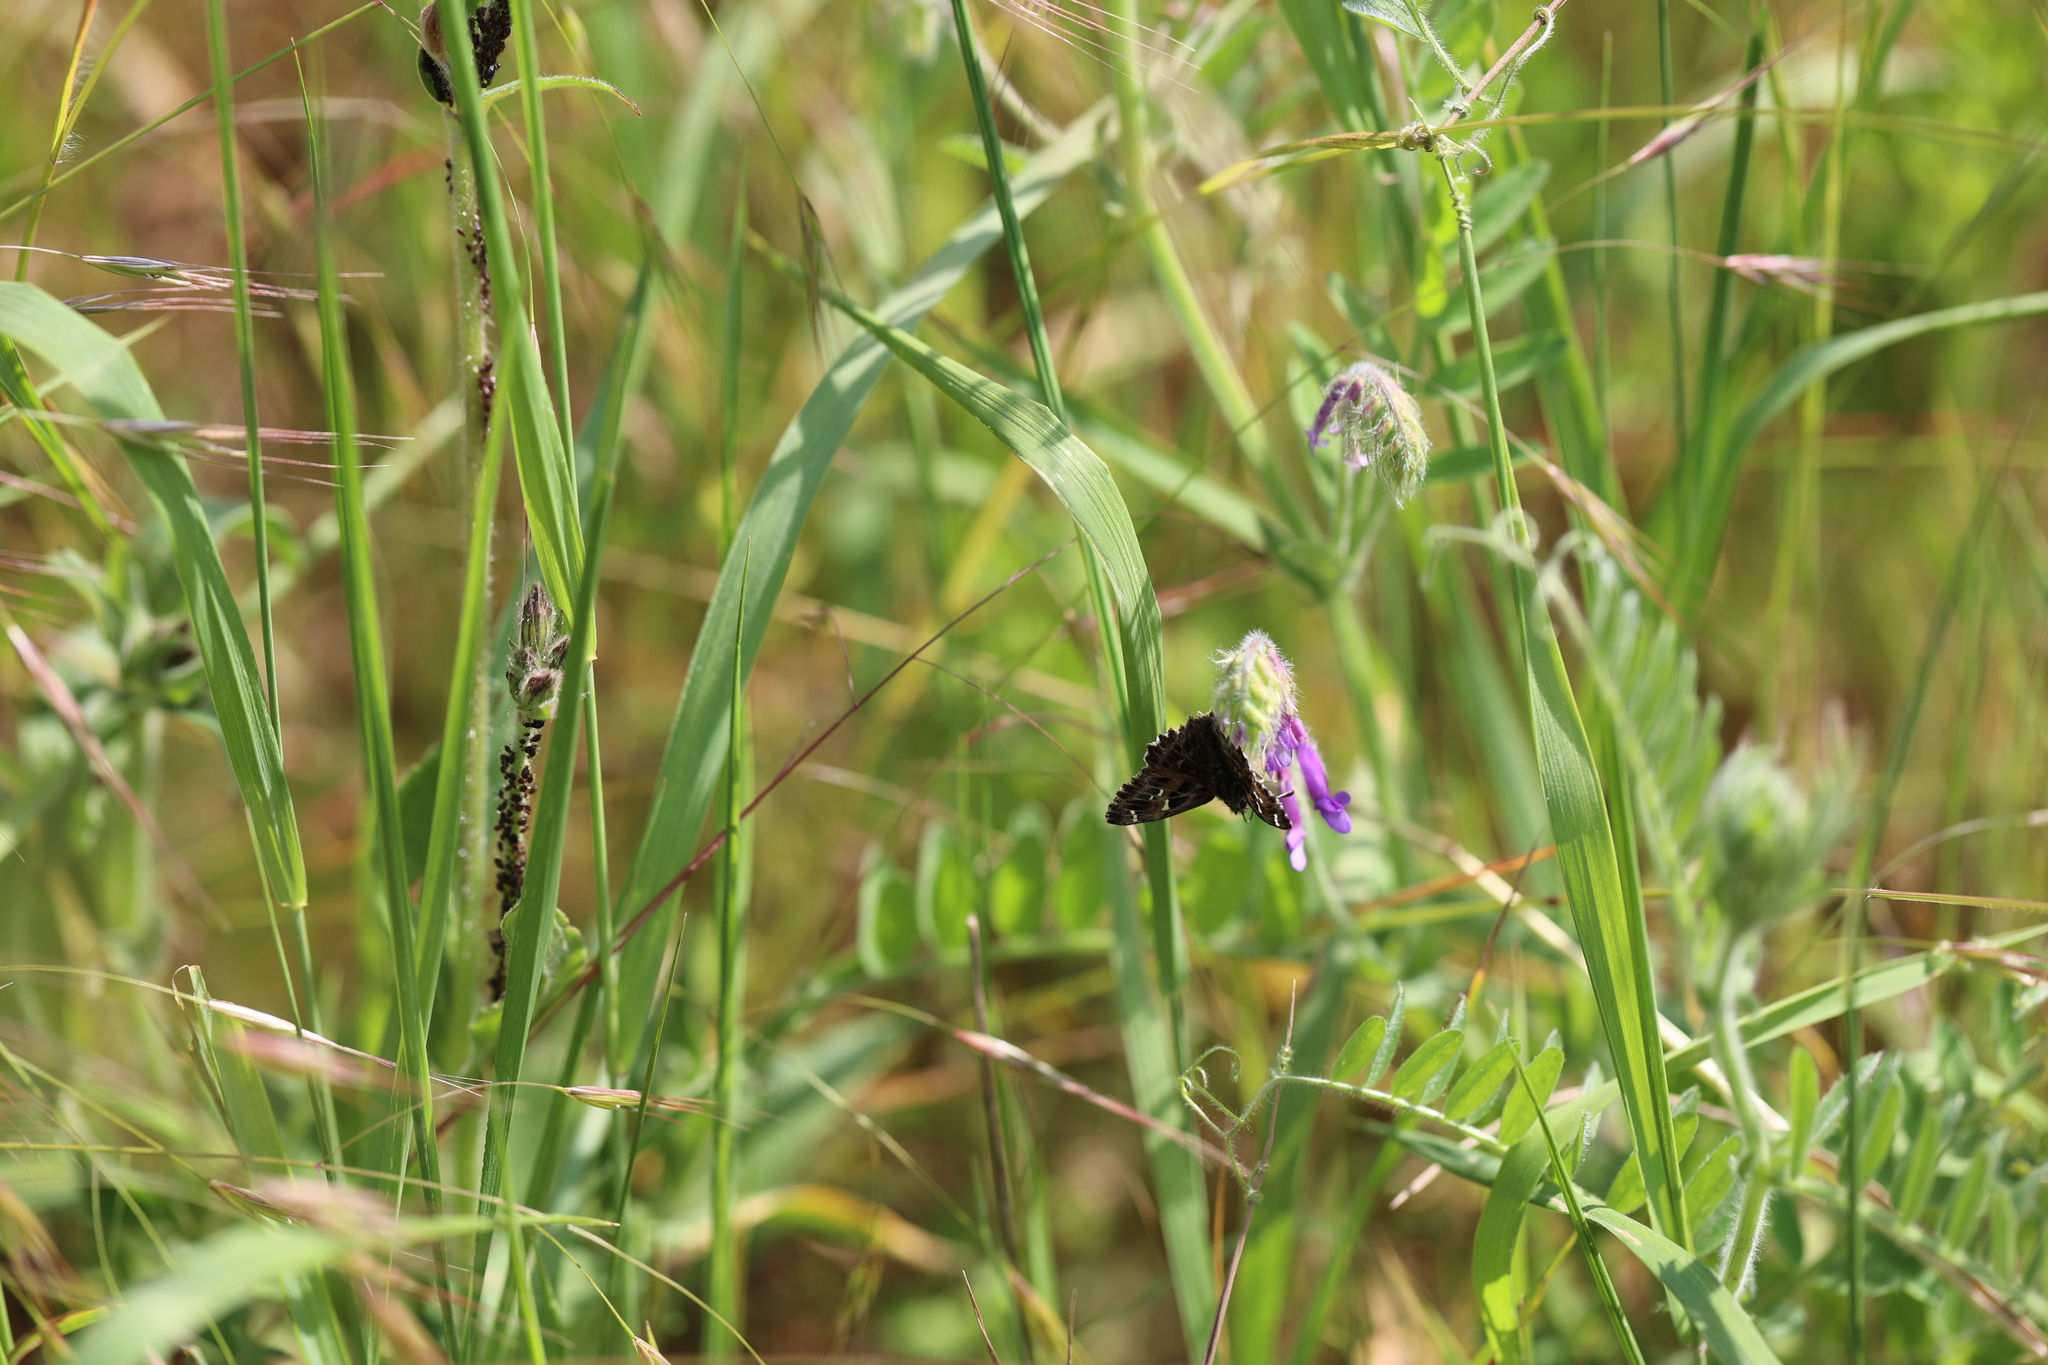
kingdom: Animalia
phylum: Arthropoda
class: Insecta
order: Lepidoptera
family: Hesperiidae
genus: Carcharodus
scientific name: Carcharodus alceae
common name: Mallow skipper
